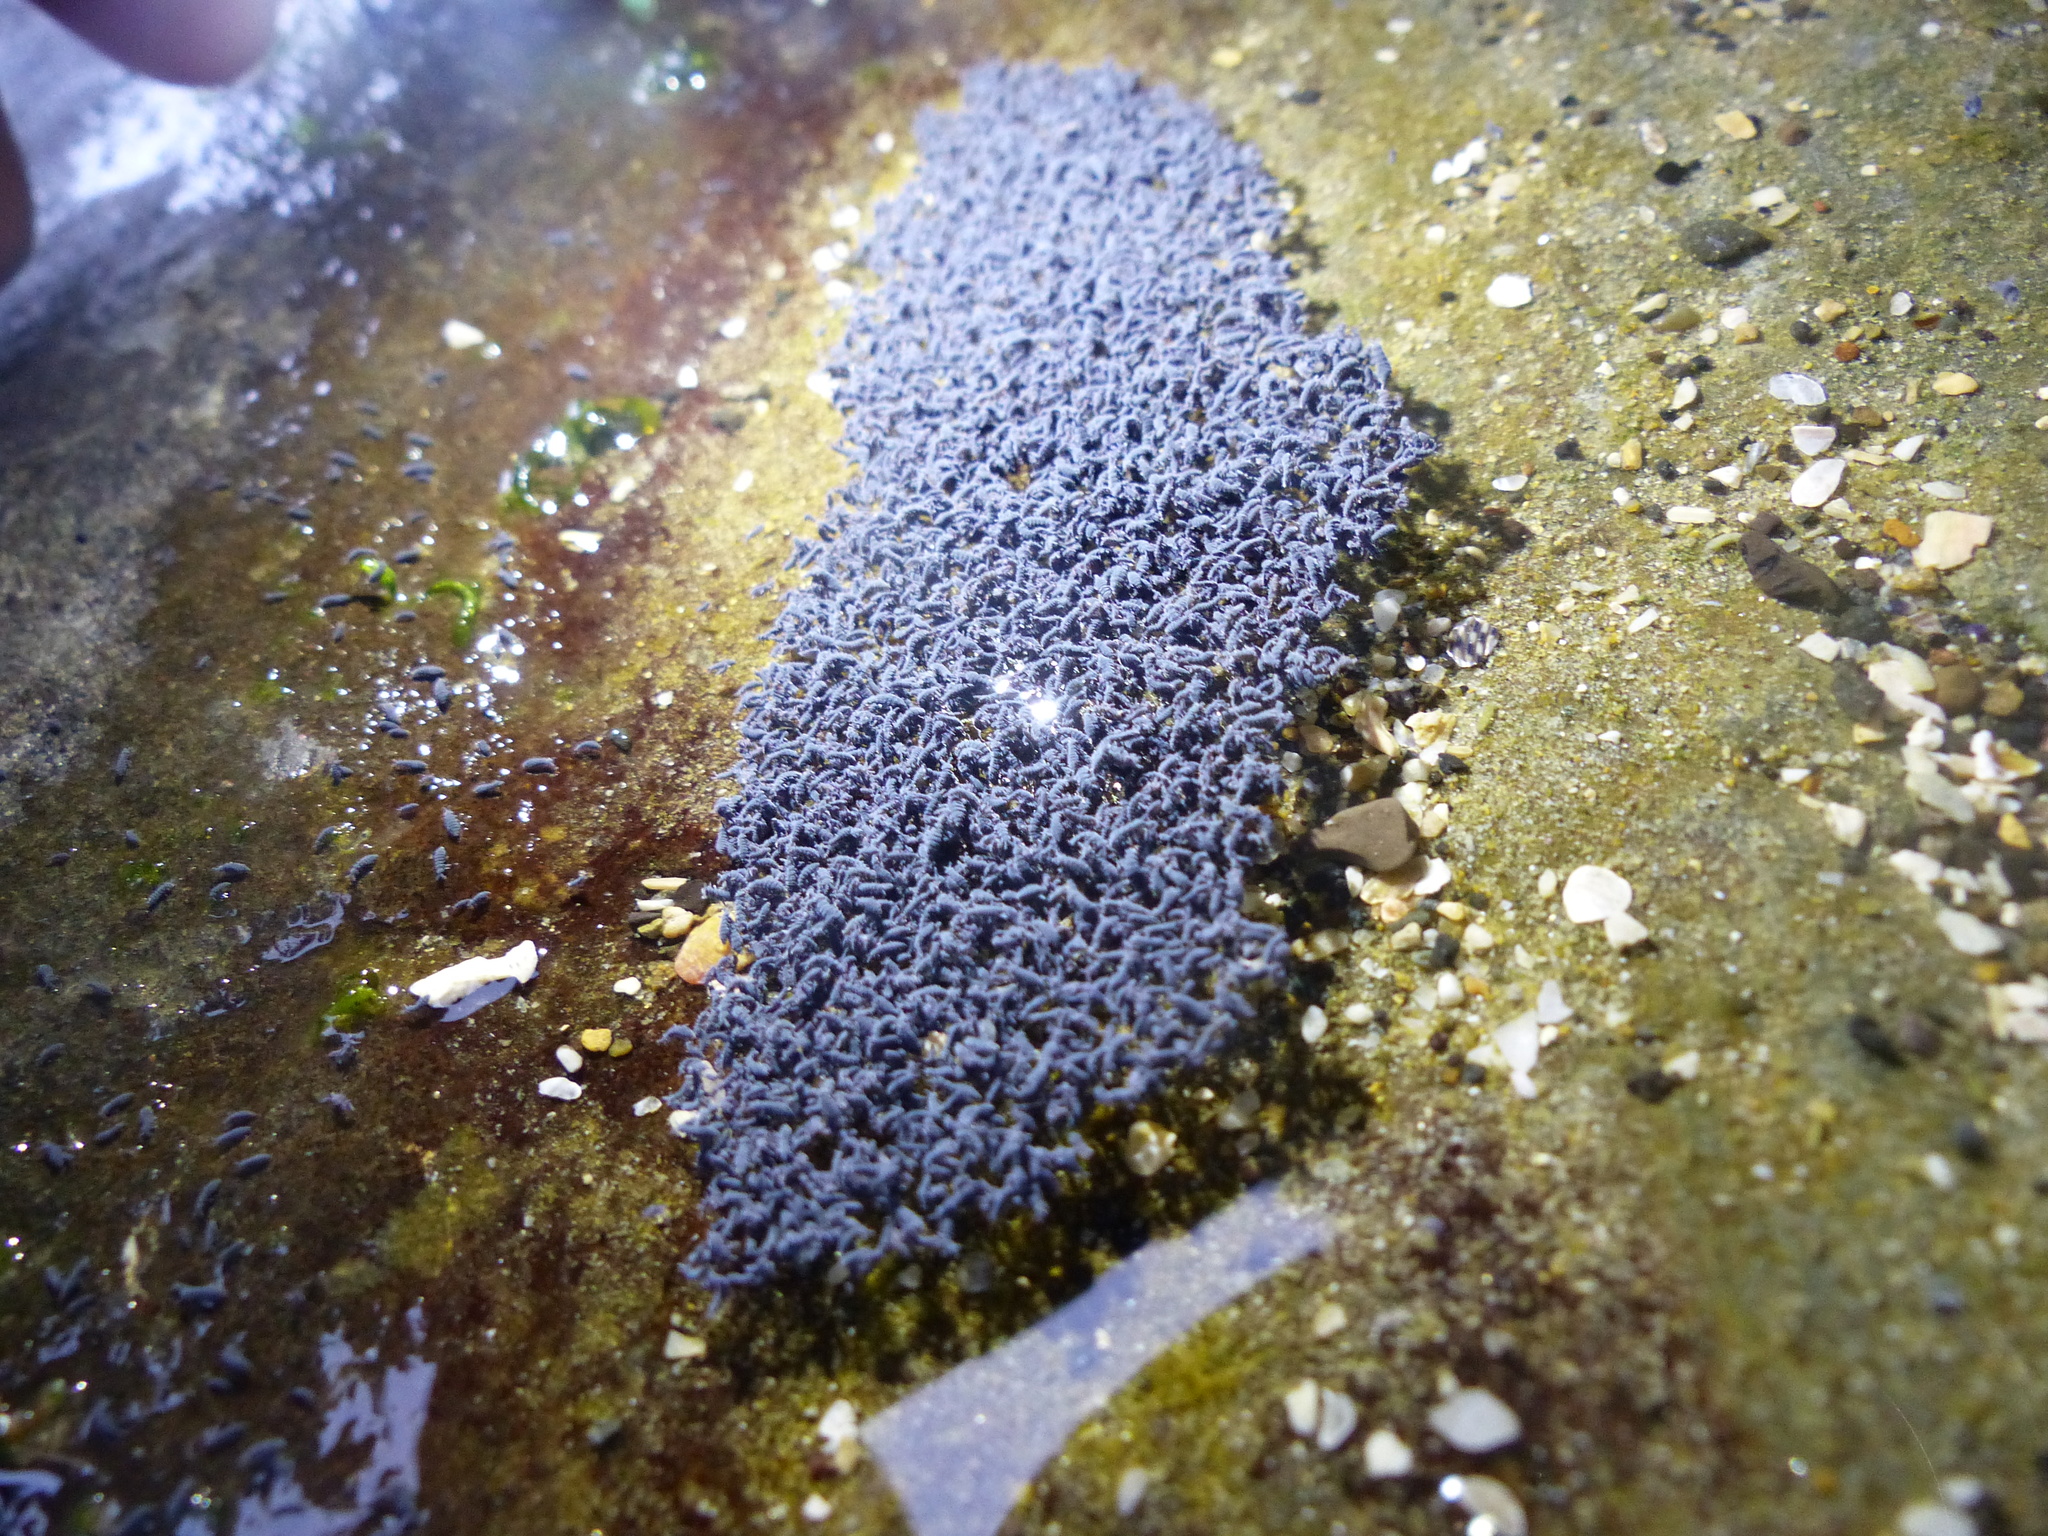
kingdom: Animalia
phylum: Arthropoda
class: Collembola
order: Poduromorpha
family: Neanuridae
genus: Anurida
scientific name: Anurida maritima
